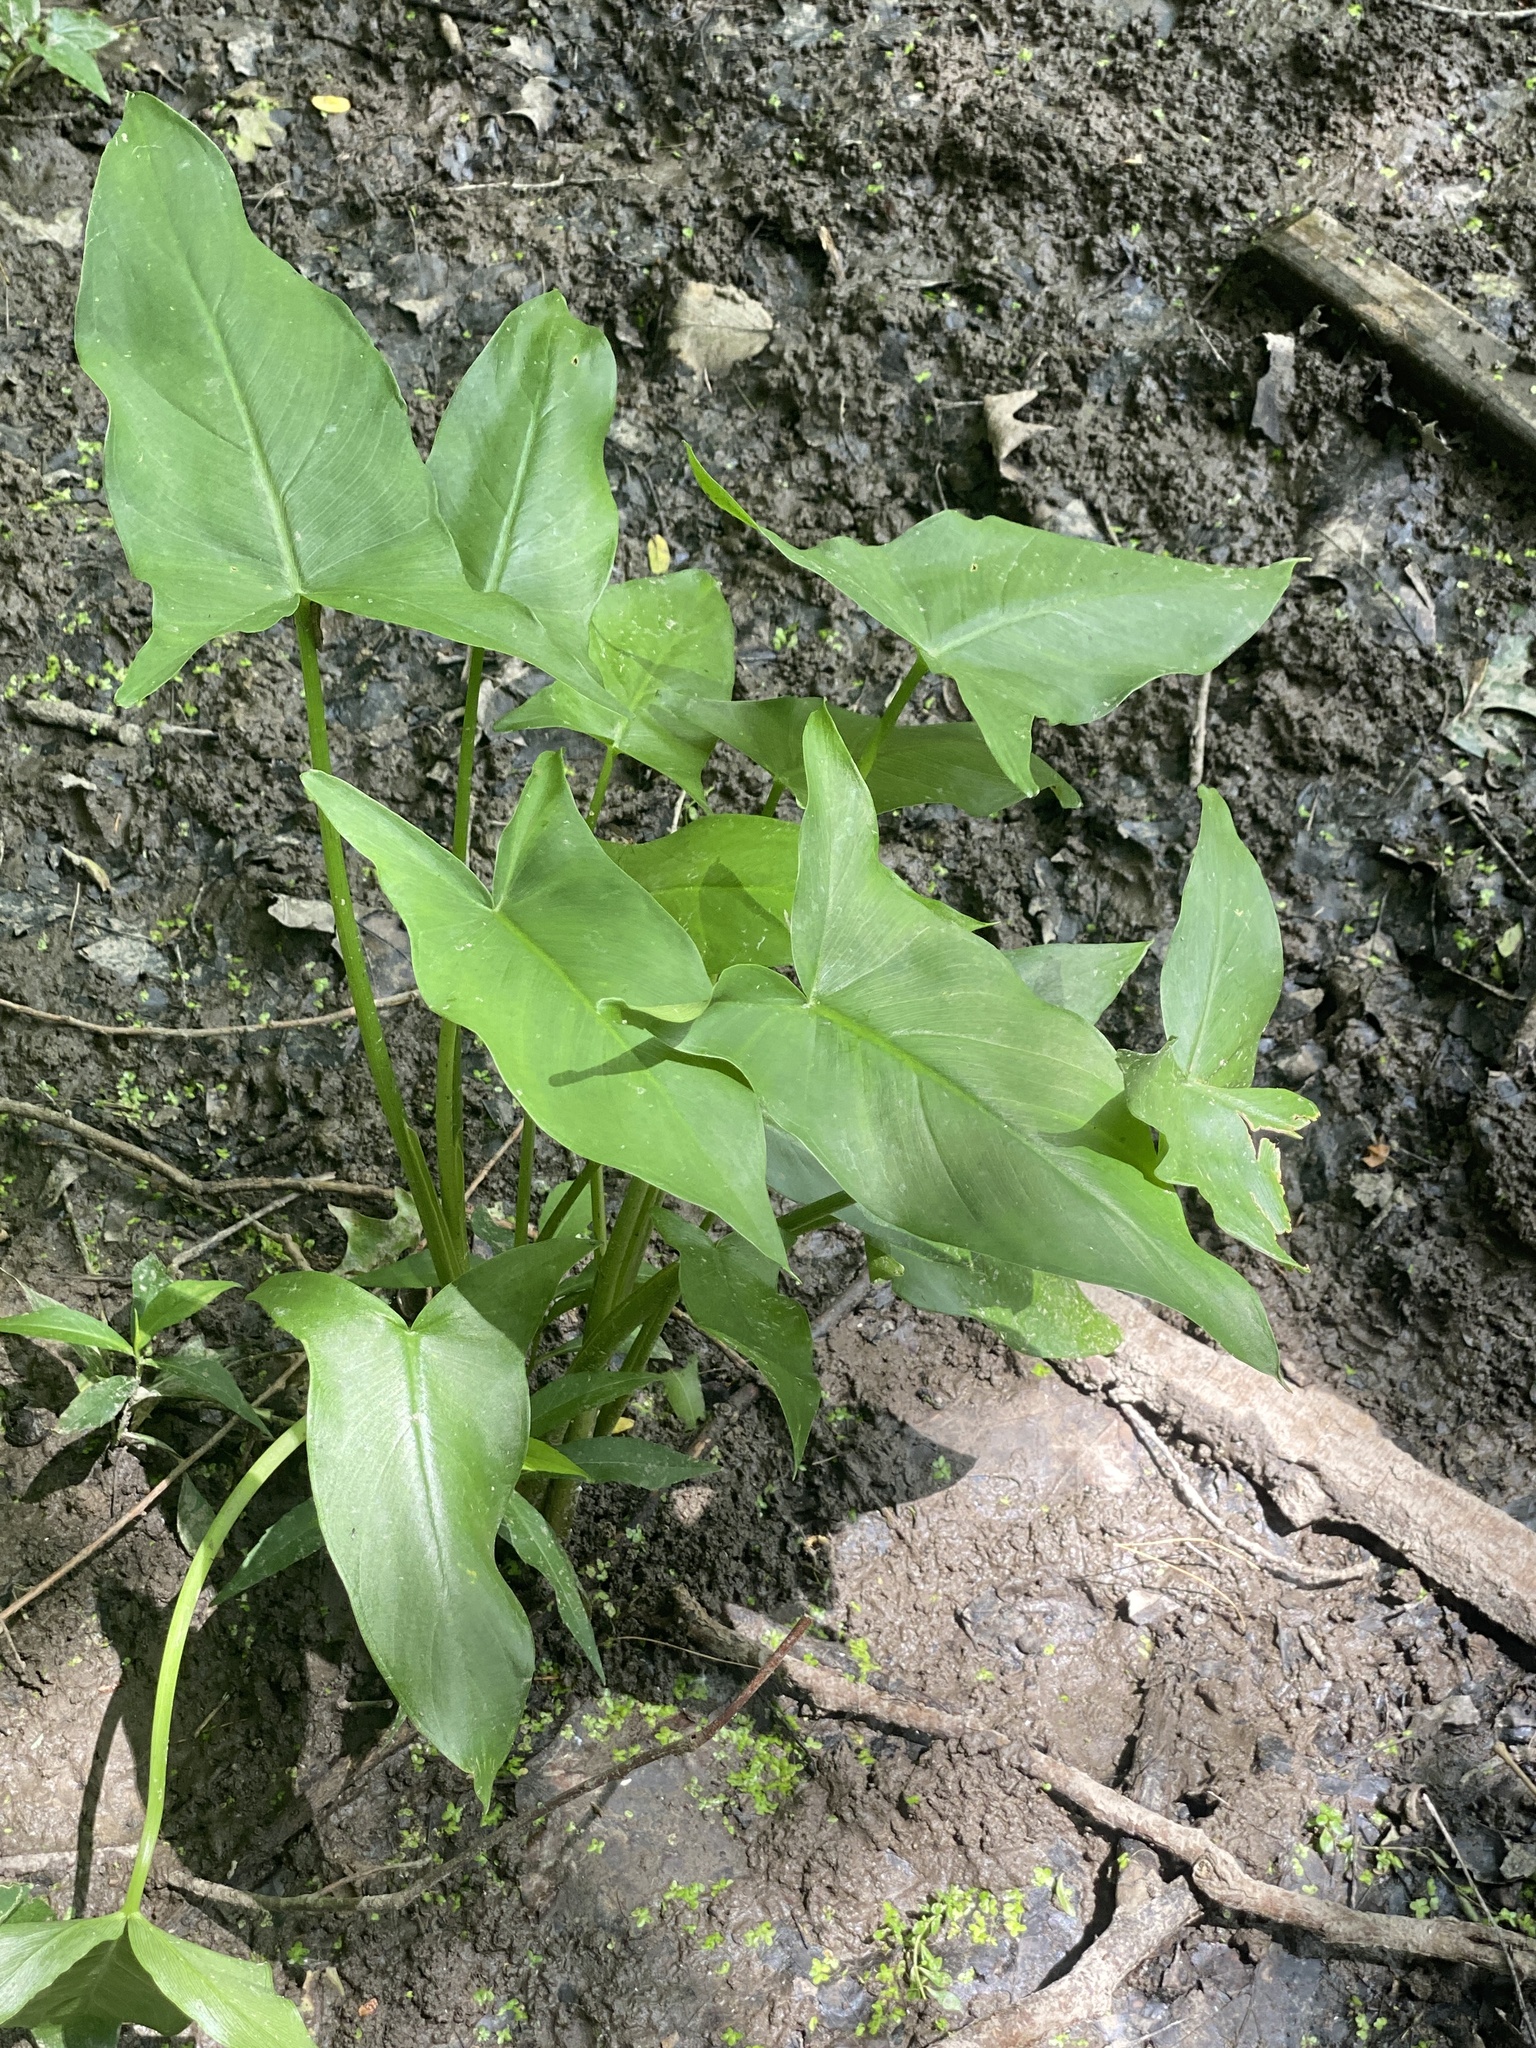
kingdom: Plantae
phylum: Tracheophyta
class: Liliopsida
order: Alismatales
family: Araceae
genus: Peltandra
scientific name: Peltandra virginica
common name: Arrow arum
